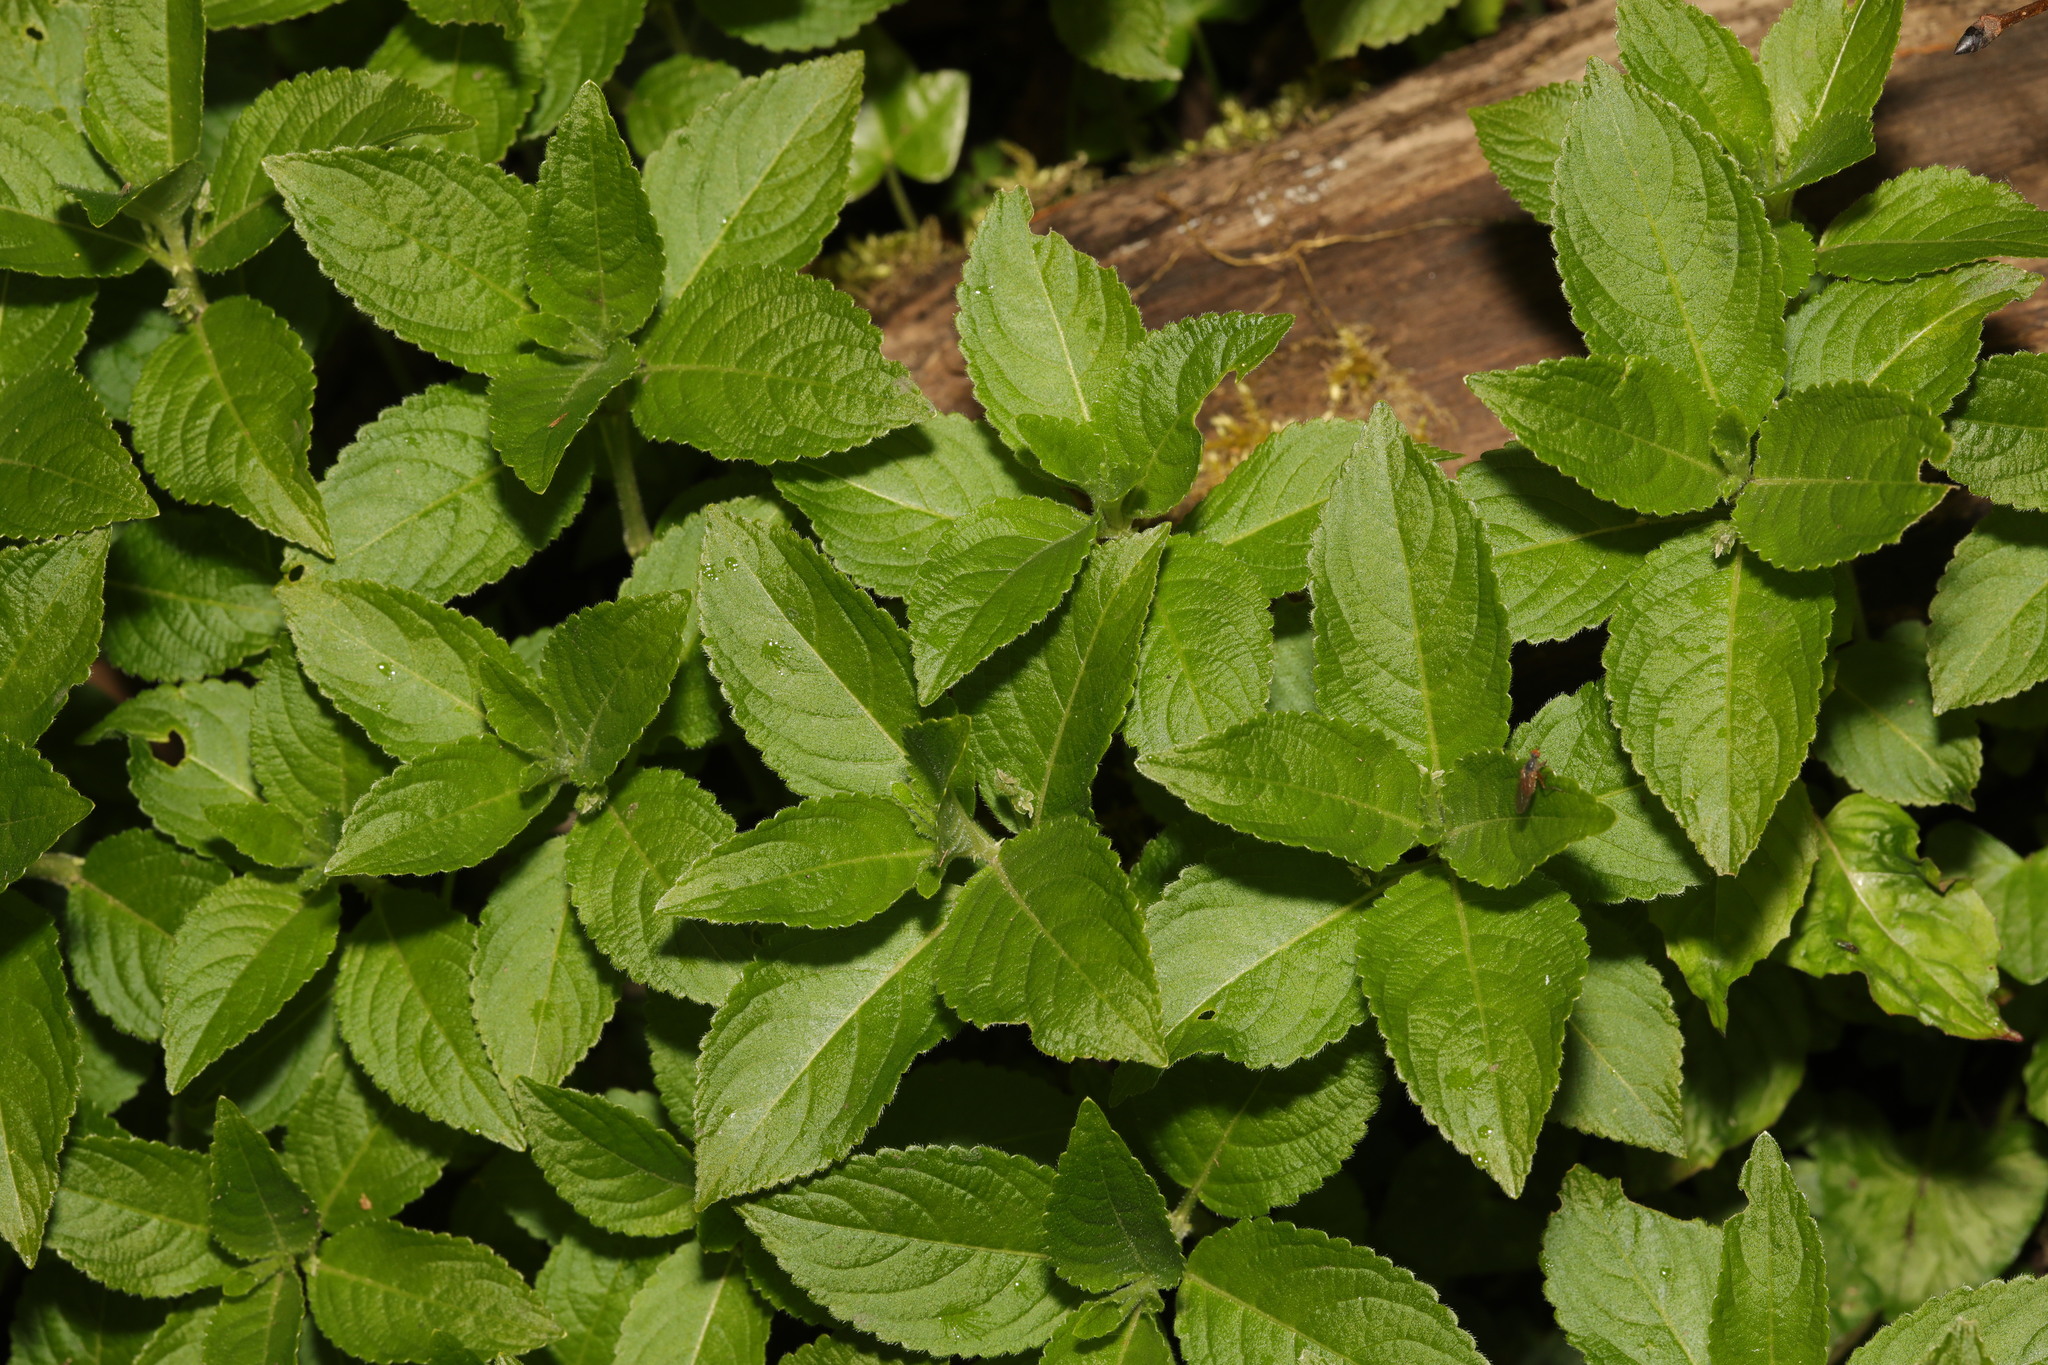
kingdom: Plantae
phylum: Tracheophyta
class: Magnoliopsida
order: Malpighiales
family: Euphorbiaceae
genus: Mercurialis
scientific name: Mercurialis perennis
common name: Dog mercury
